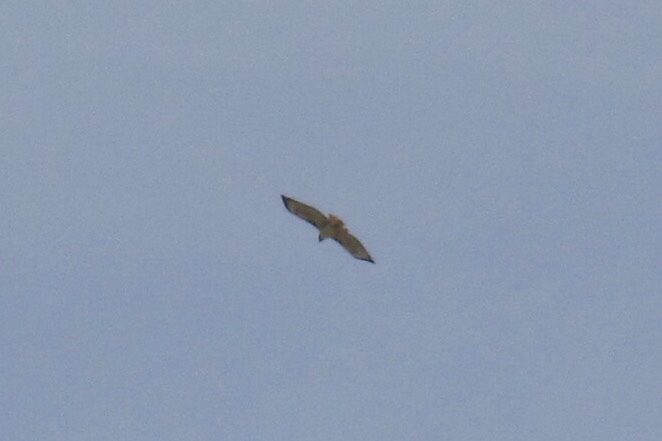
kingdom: Animalia
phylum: Chordata
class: Aves
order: Accipitriformes
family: Accipitridae
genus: Buteo
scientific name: Buteo jamaicensis
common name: Red-tailed hawk
